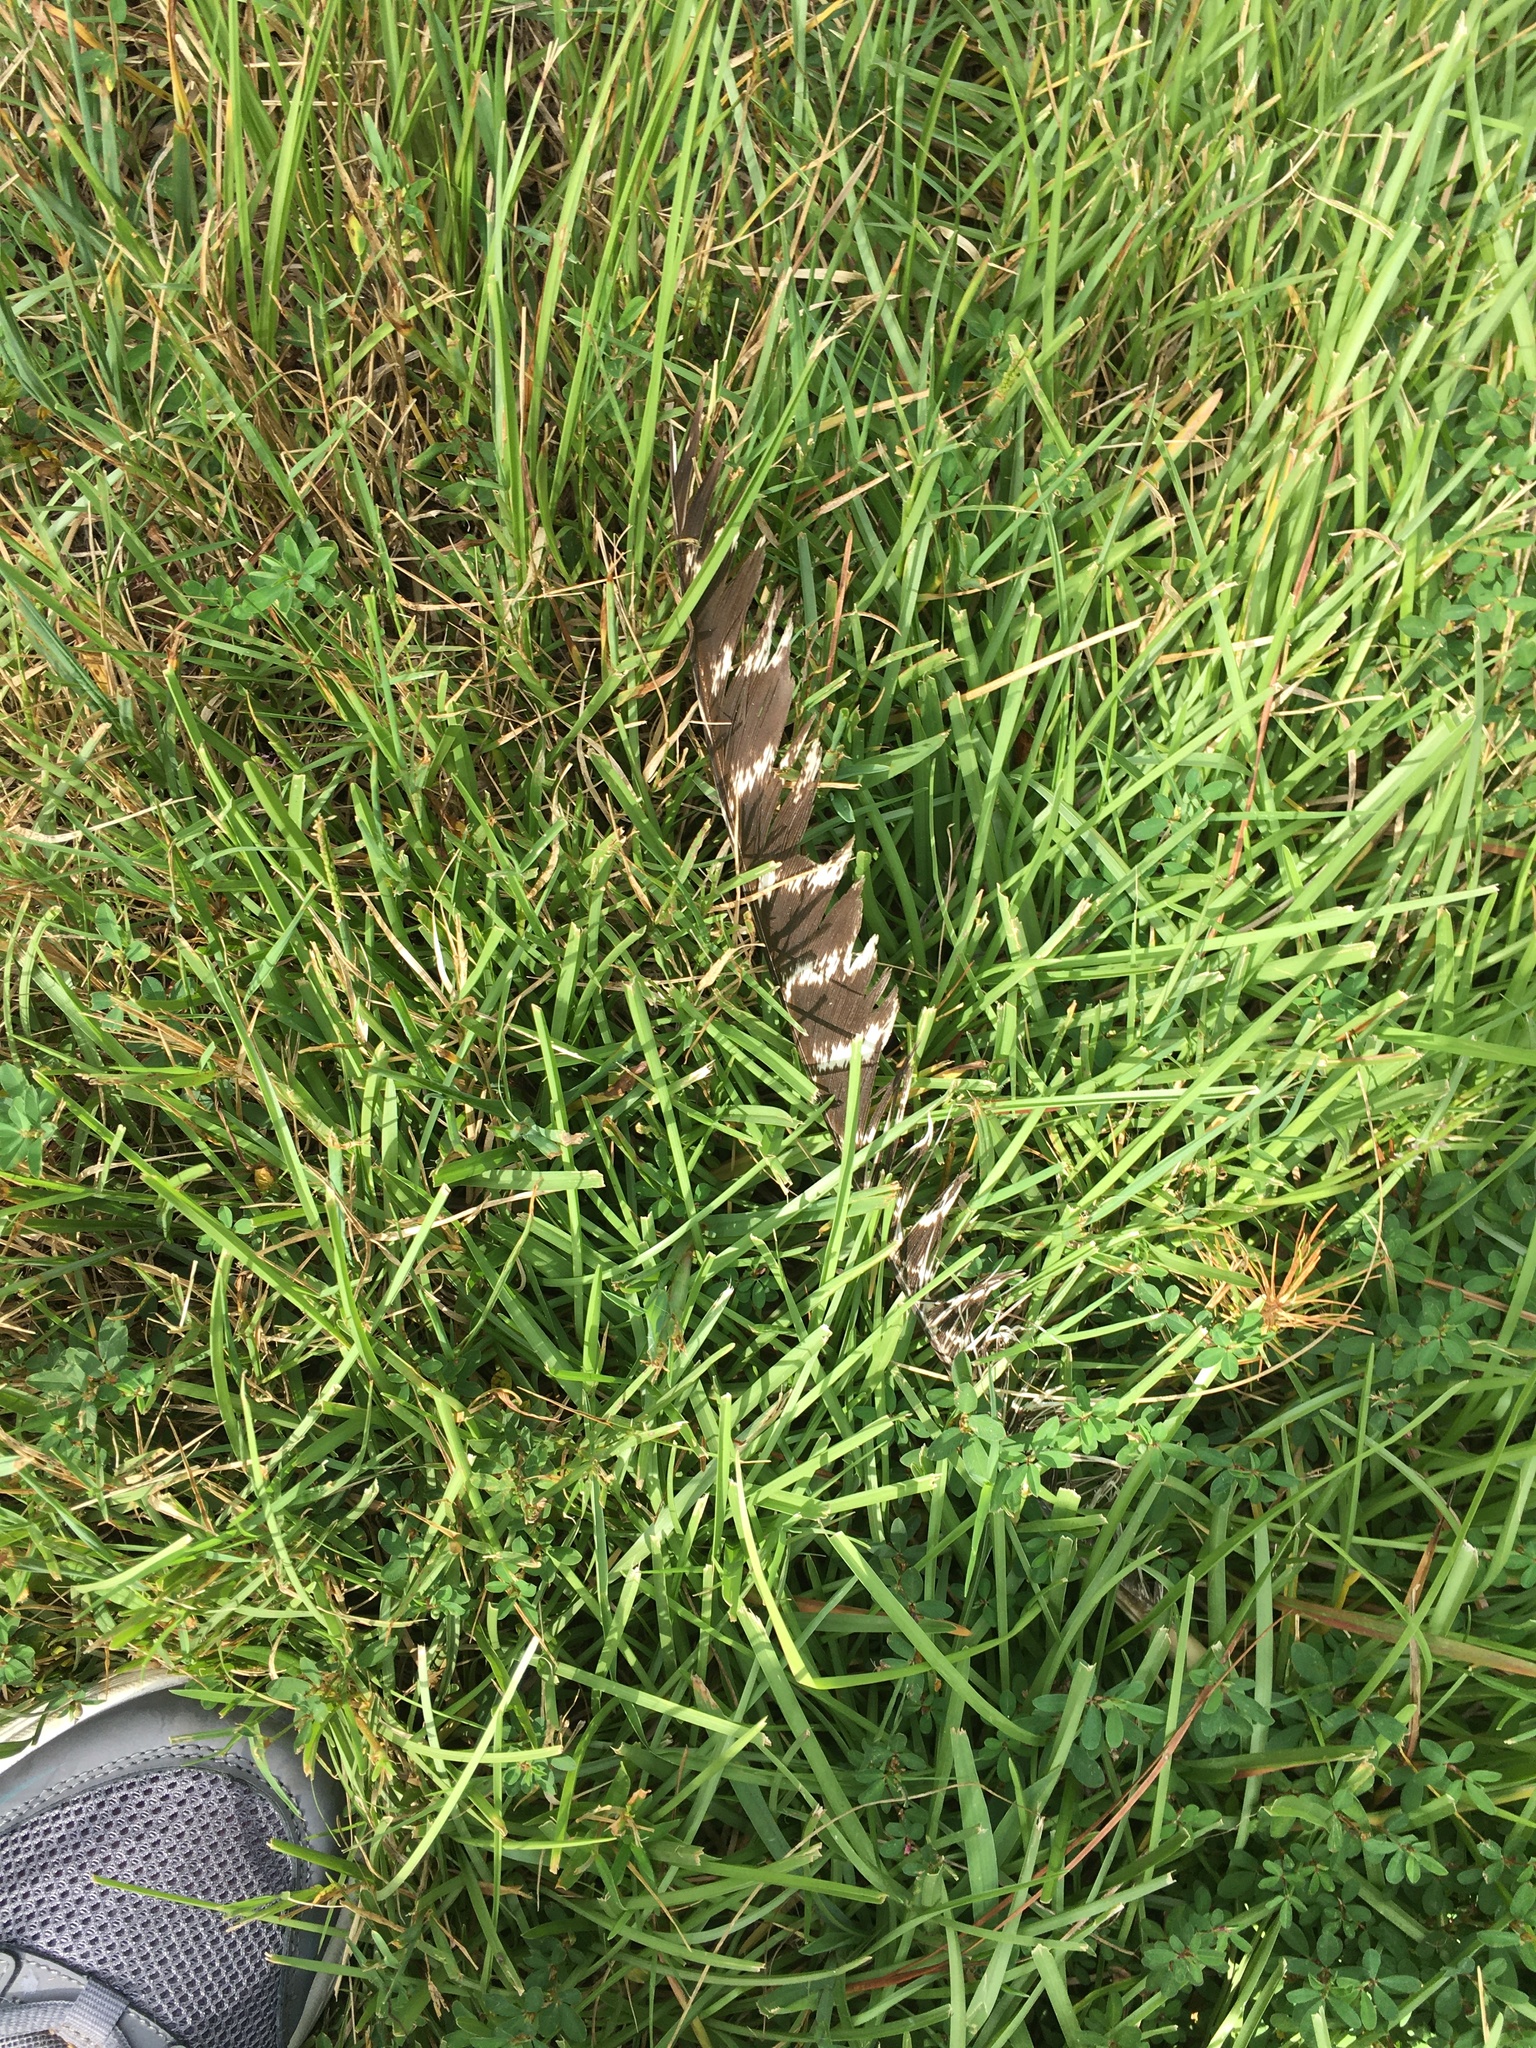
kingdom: Animalia
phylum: Chordata
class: Aves
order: Galliformes
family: Phasianidae
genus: Meleagris
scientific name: Meleagris gallopavo
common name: Wild turkey
